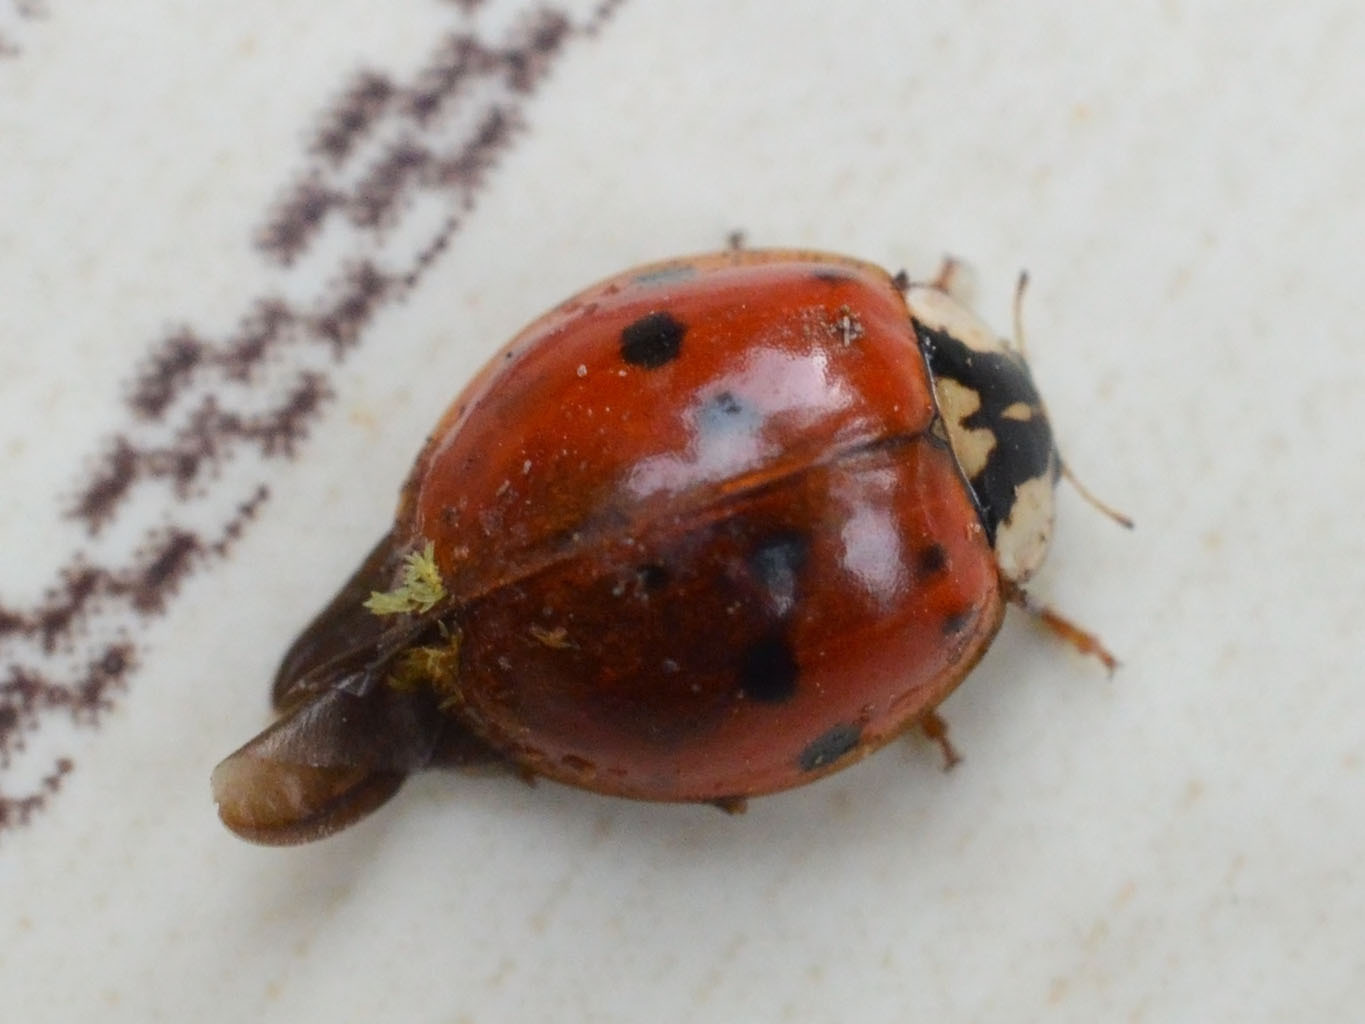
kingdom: Animalia
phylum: Arthropoda
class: Insecta
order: Coleoptera
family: Coccinellidae
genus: Harmonia
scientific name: Harmonia axyridis
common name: Harlequin ladybird
